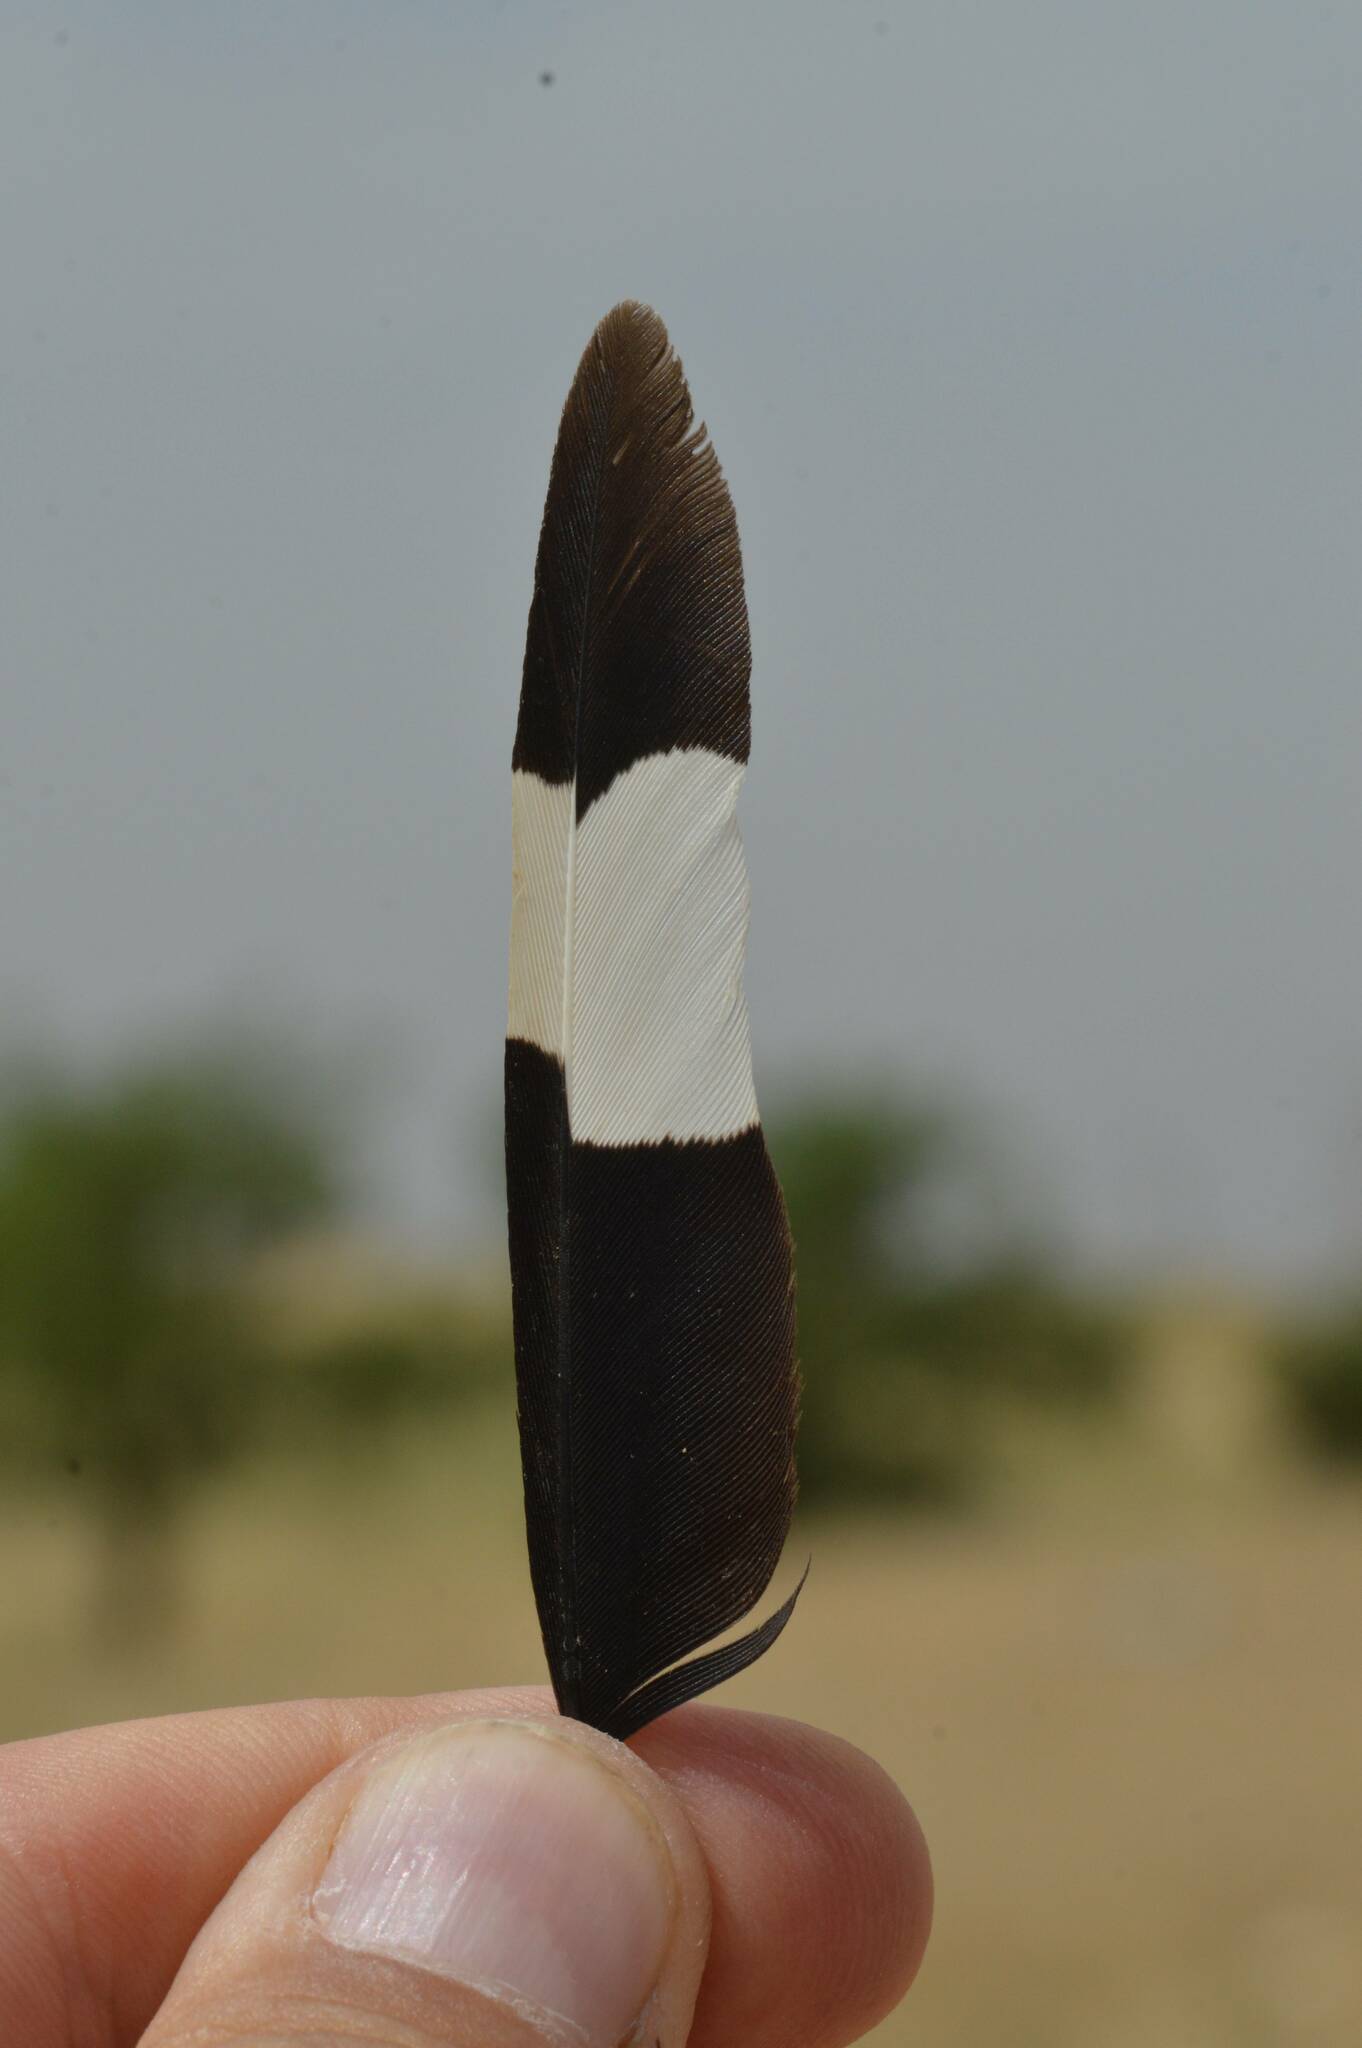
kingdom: Animalia
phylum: Chordata
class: Aves
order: Bucerotiformes
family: Upupidae
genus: Upupa
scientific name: Upupa epops
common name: Eurasian hoopoe
